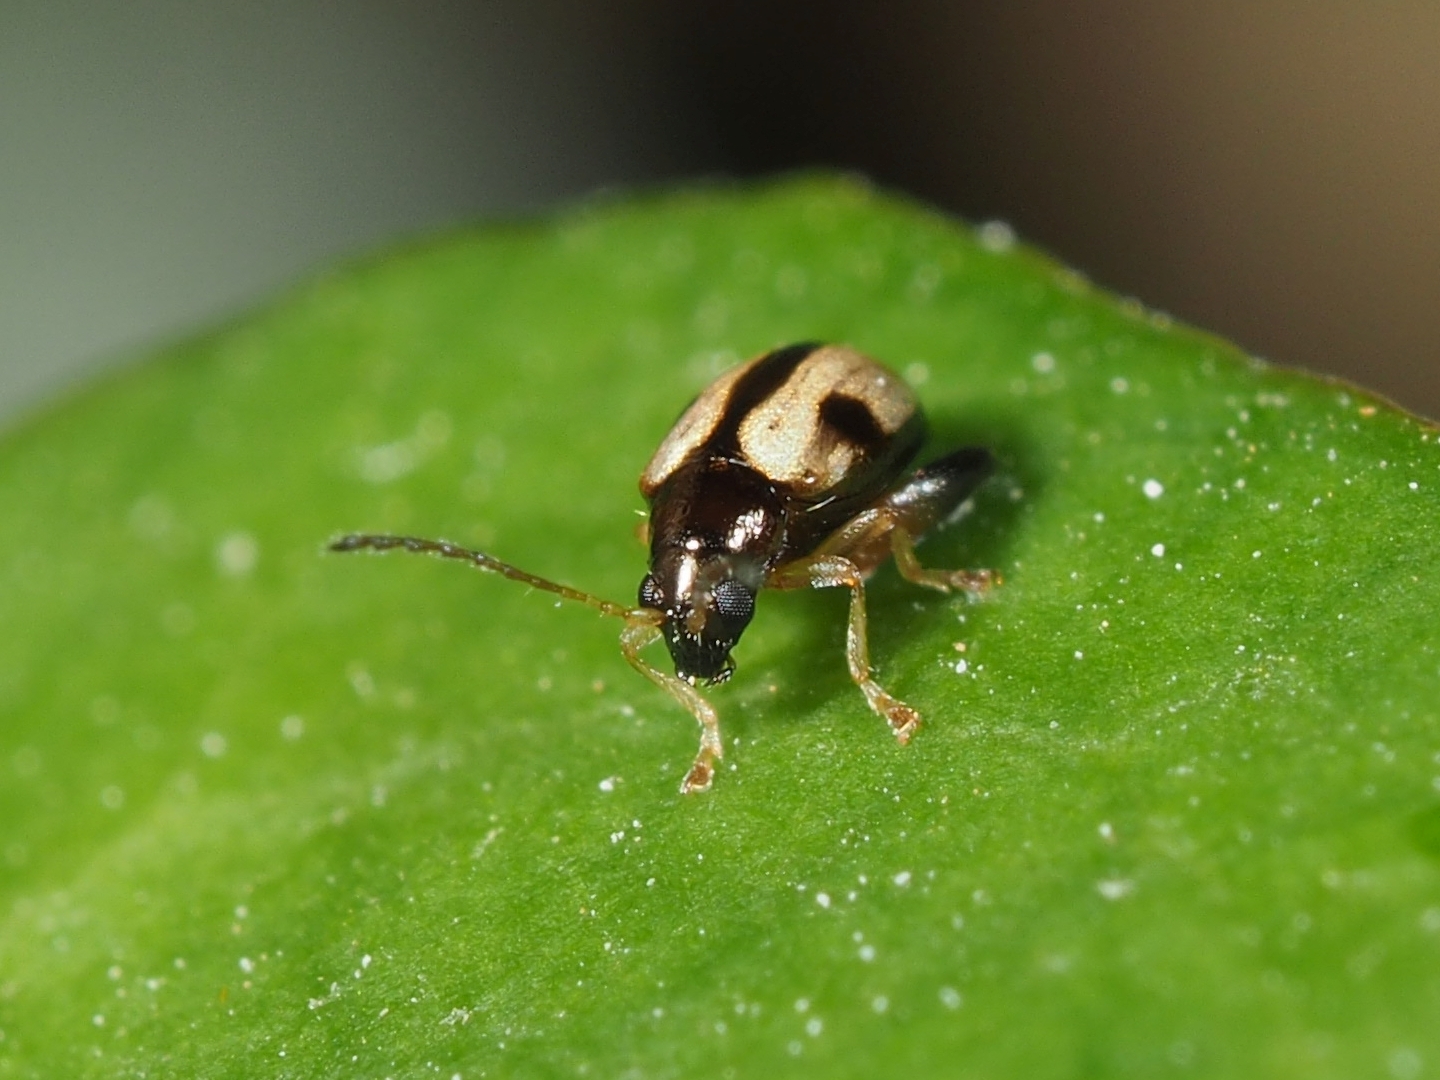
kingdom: Animalia
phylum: Arthropoda
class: Insecta
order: Coleoptera
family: Chrysomelidae
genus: Longitarsus
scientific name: Longitarsus lateripunctatus
